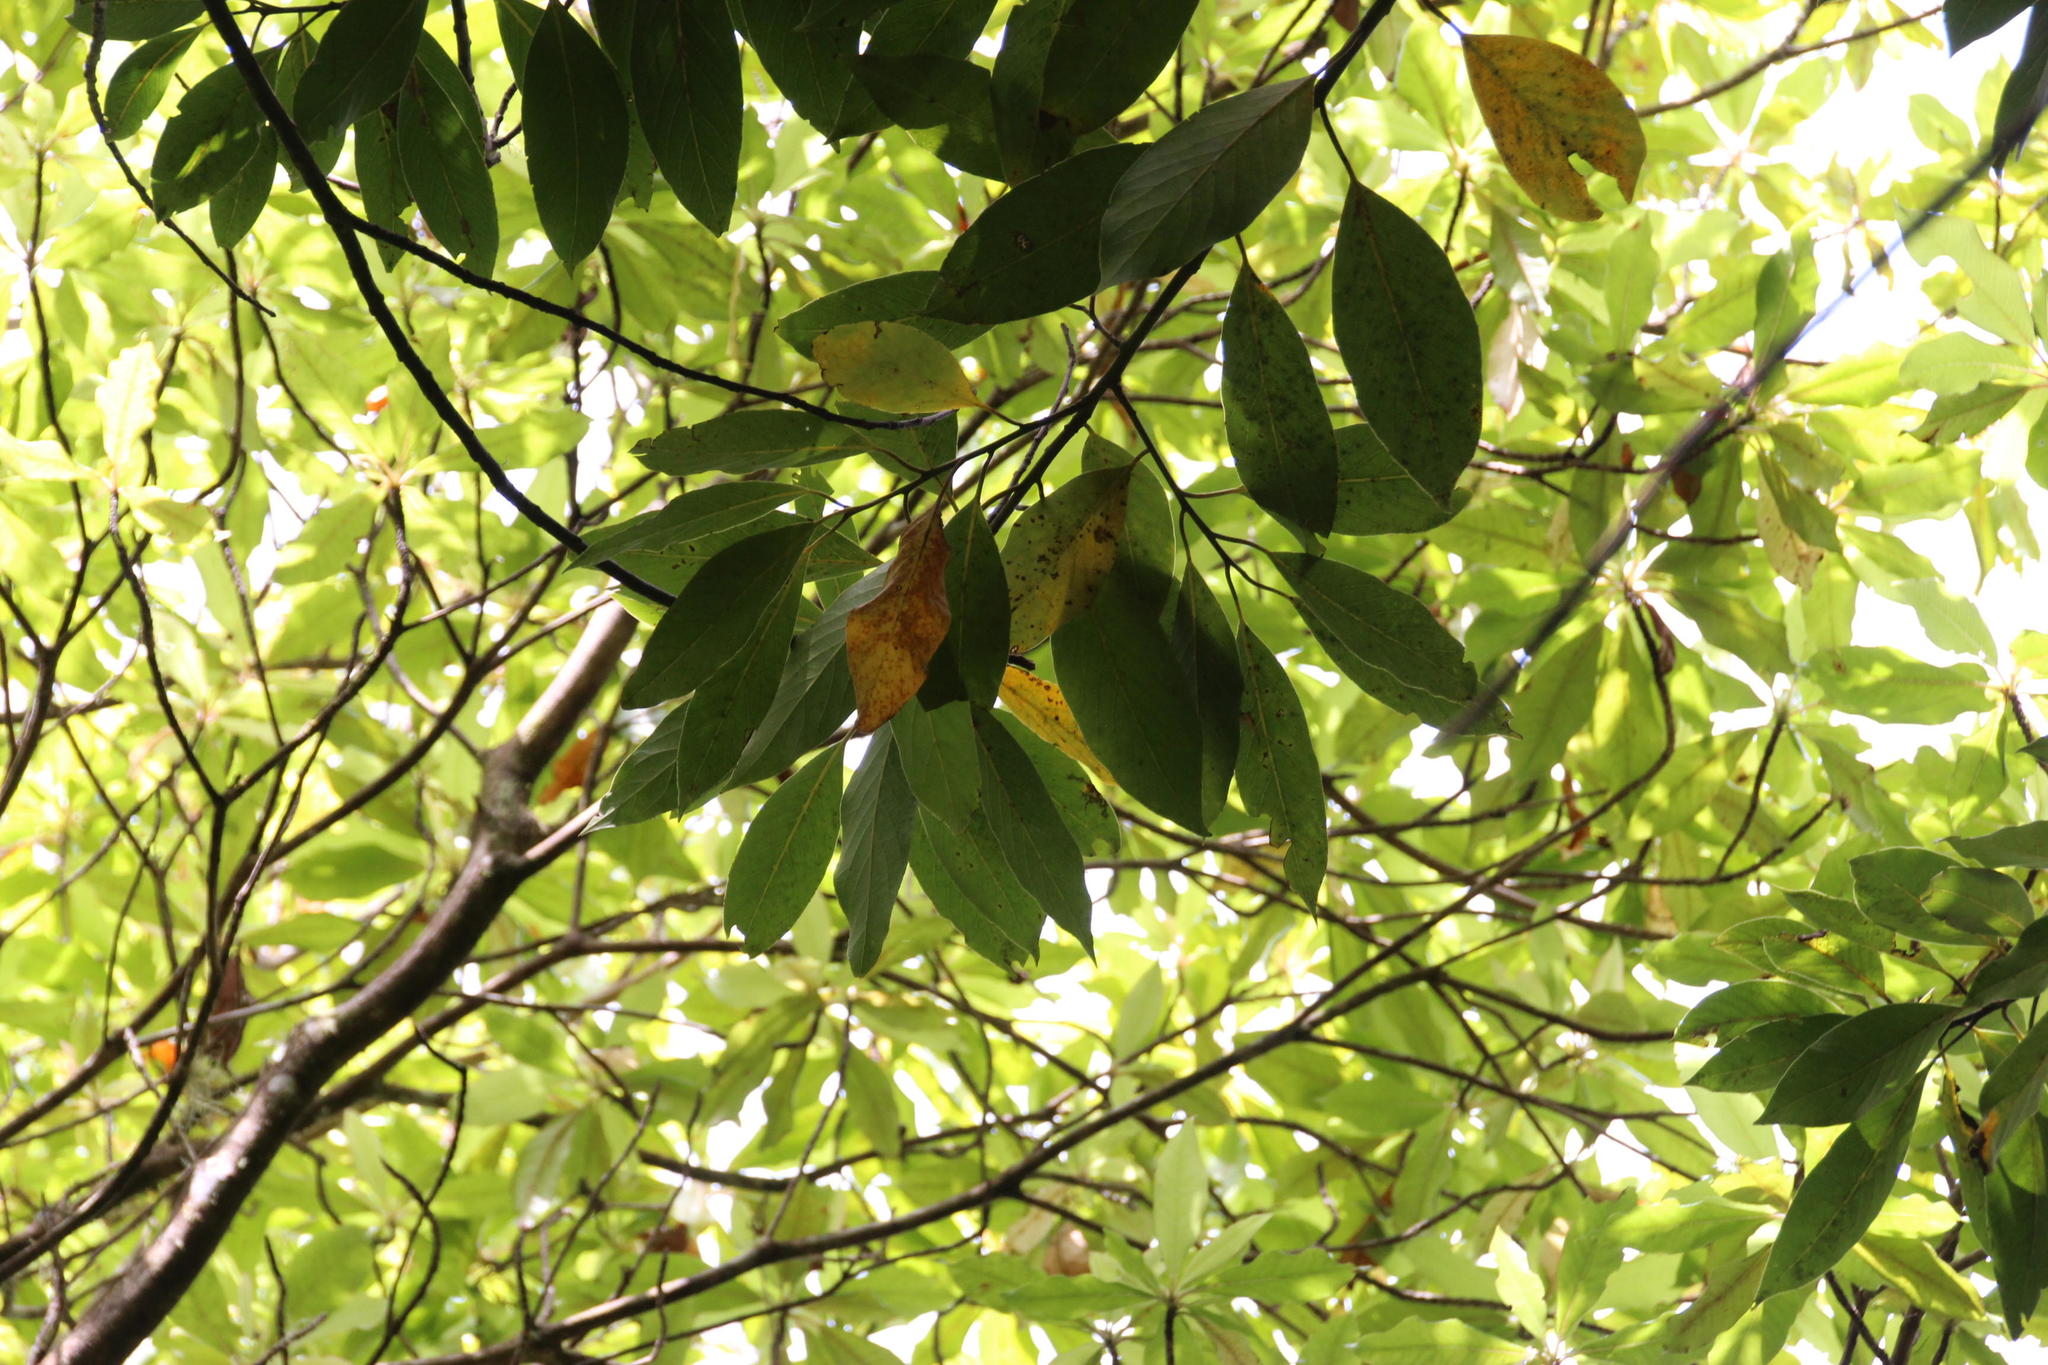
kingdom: Plantae
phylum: Tracheophyta
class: Magnoliopsida
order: Laurales
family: Lauraceae
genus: Laurus
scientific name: Laurus novocanariensis
